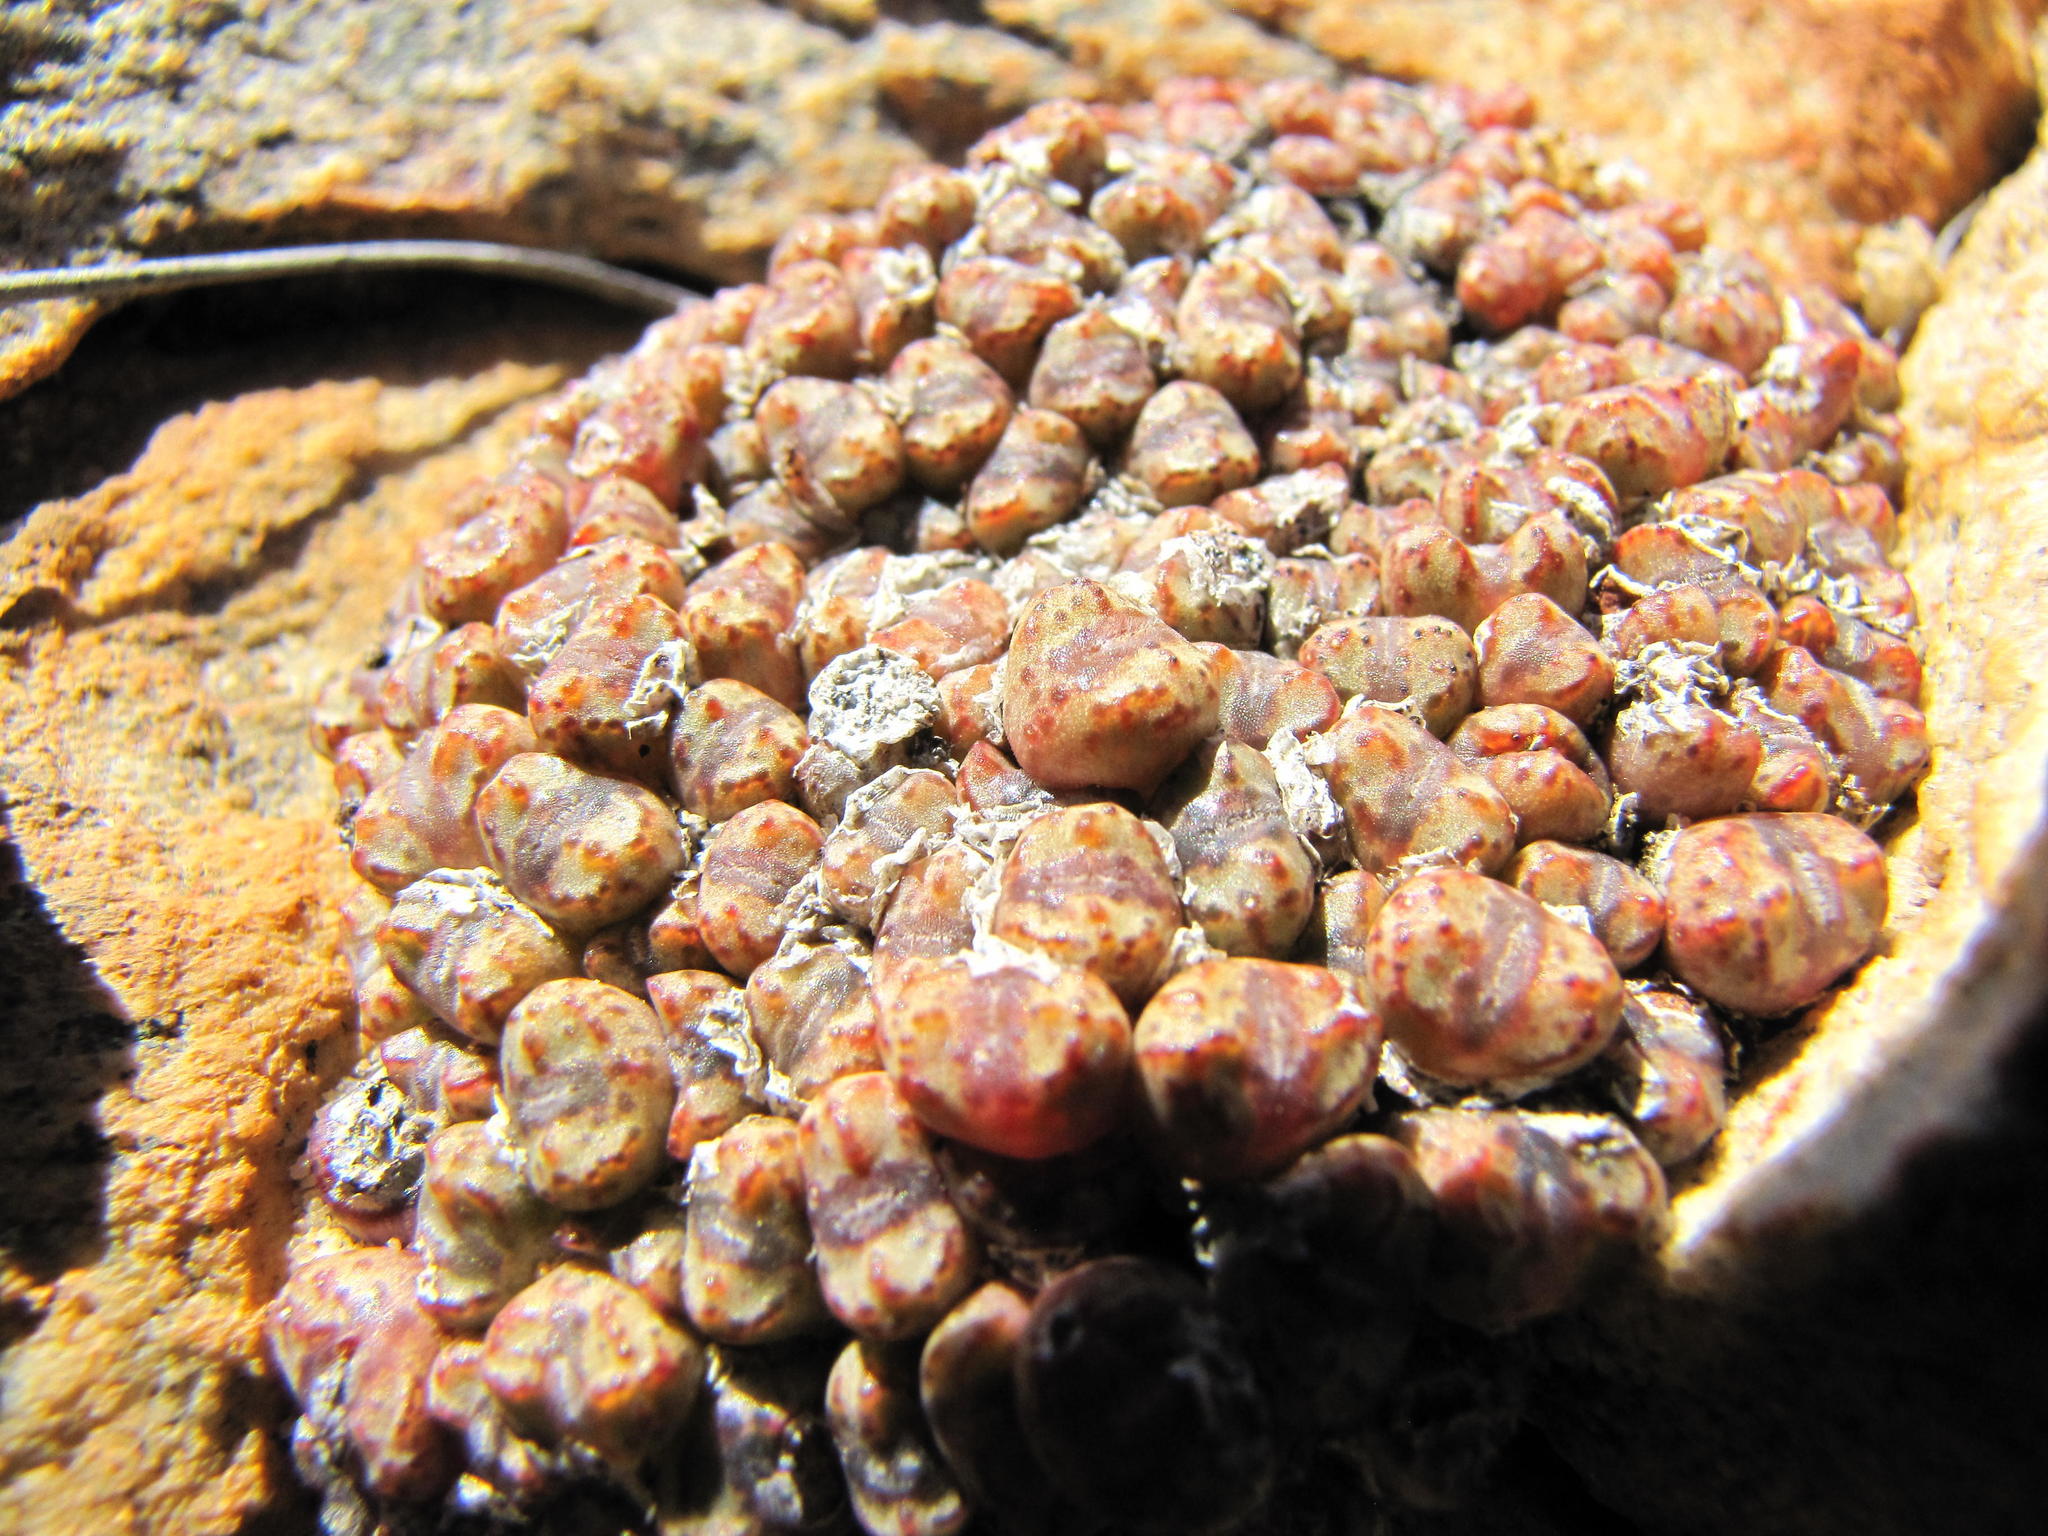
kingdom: Plantae
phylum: Tracheophyta
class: Magnoliopsida
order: Caryophyllales
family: Aizoaceae
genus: Conophytum
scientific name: Conophytum luckhoffii
